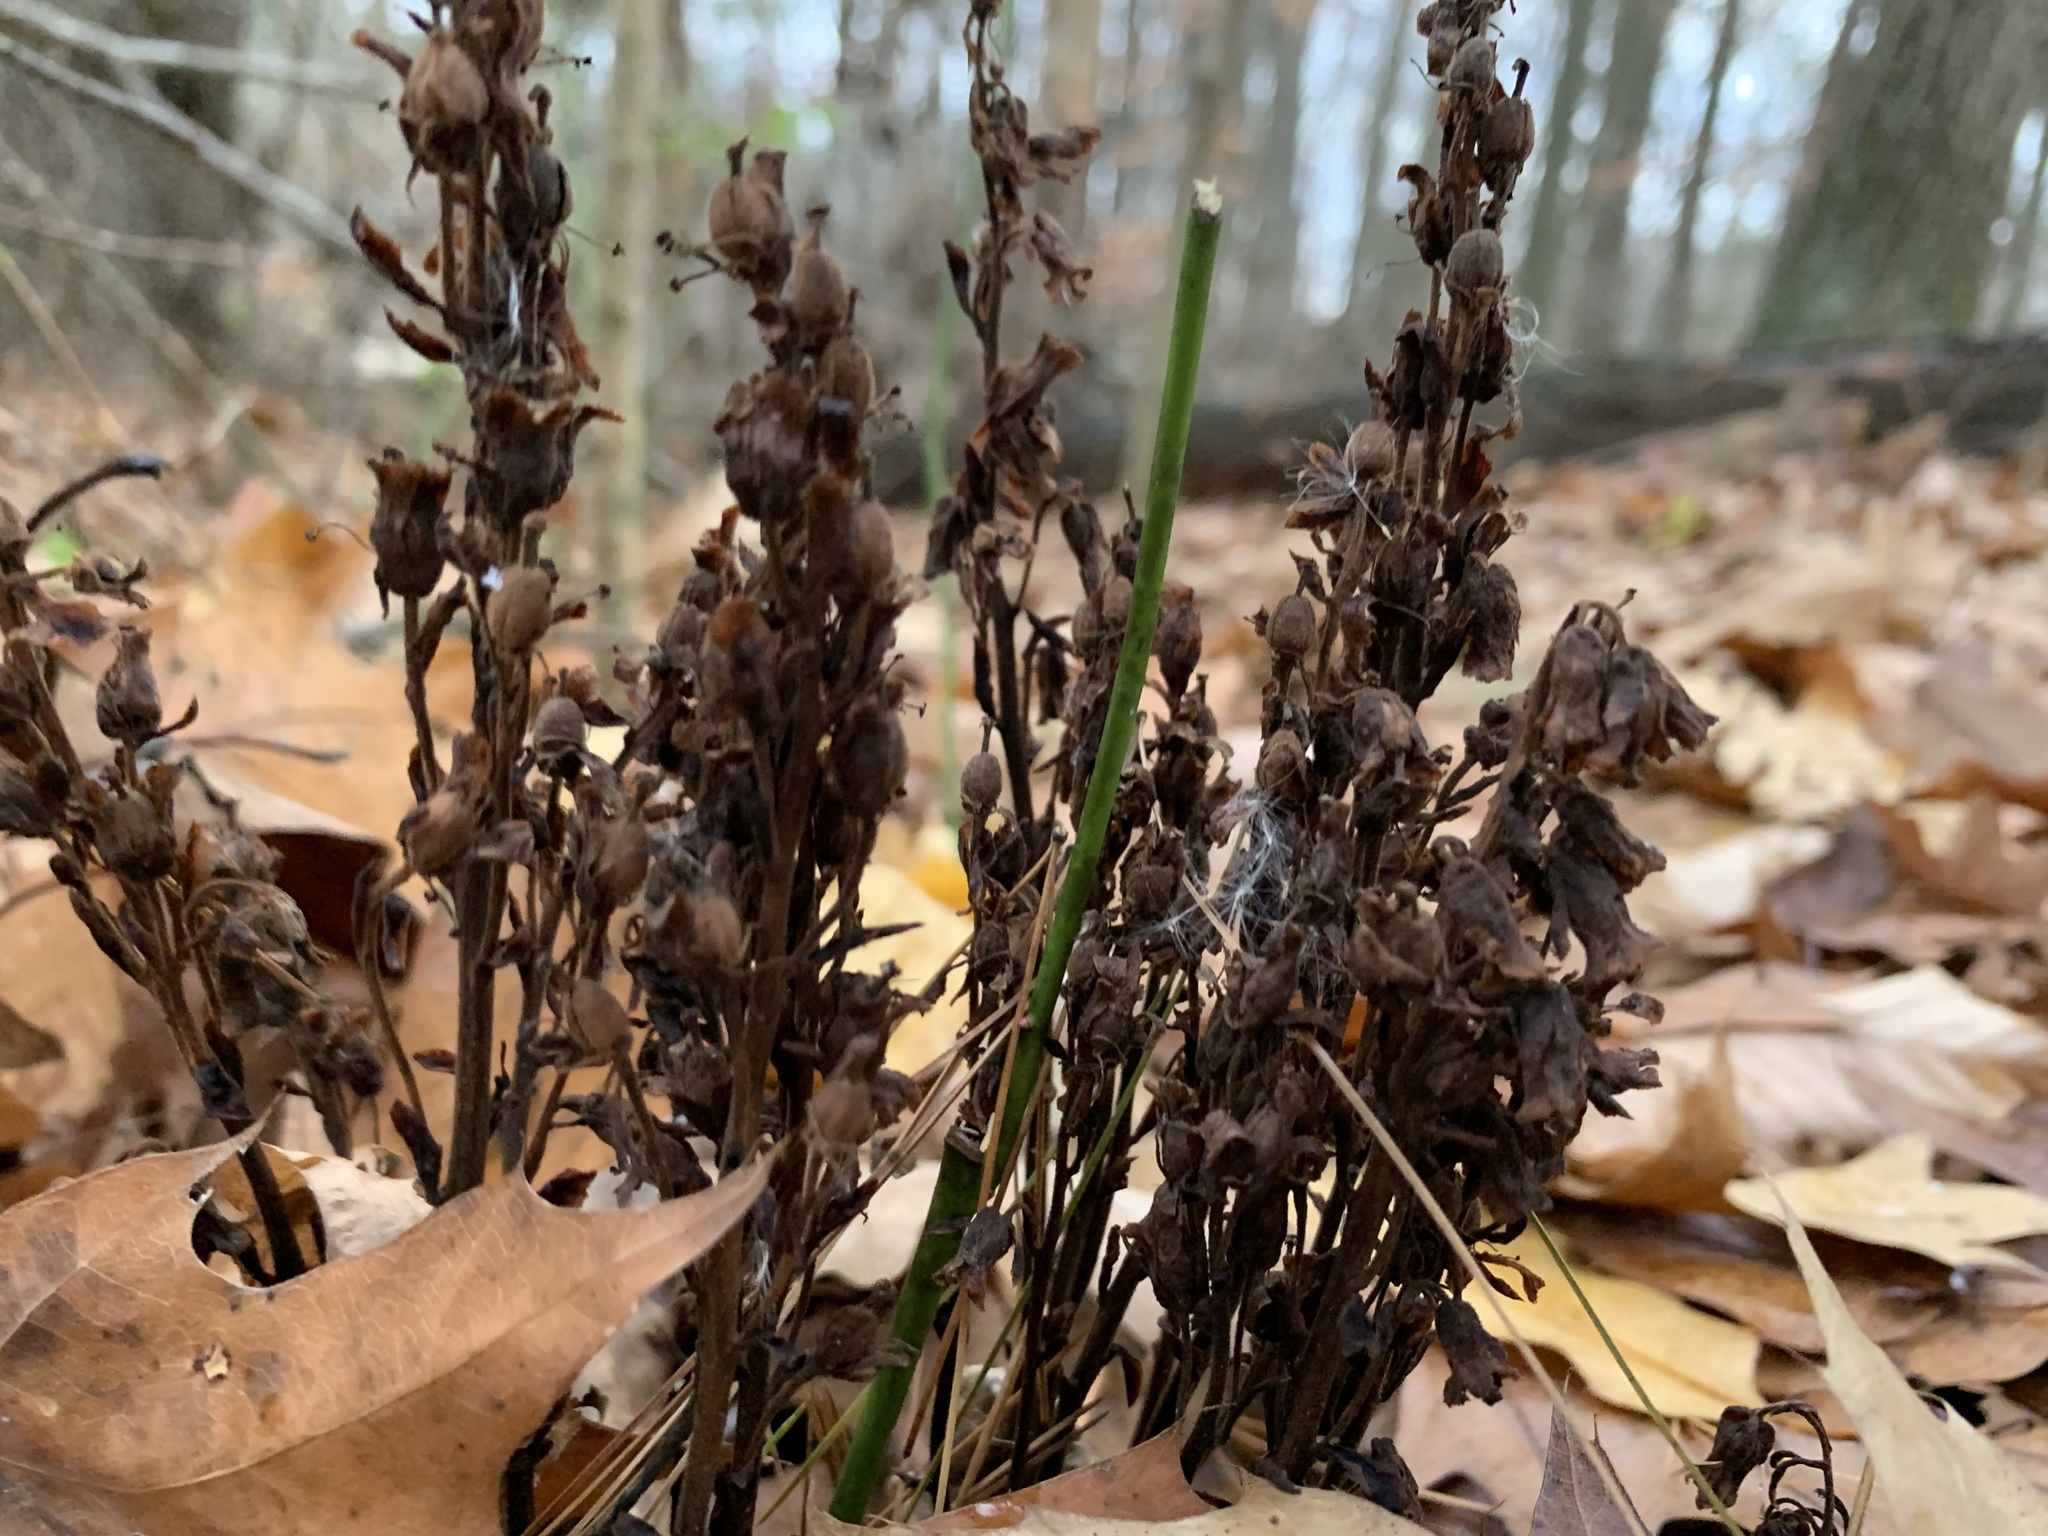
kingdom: Plantae
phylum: Tracheophyta
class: Magnoliopsida
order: Ericales
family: Ericaceae
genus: Hypopitys
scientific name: Hypopitys monotropa
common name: Yellow bird's-nest
